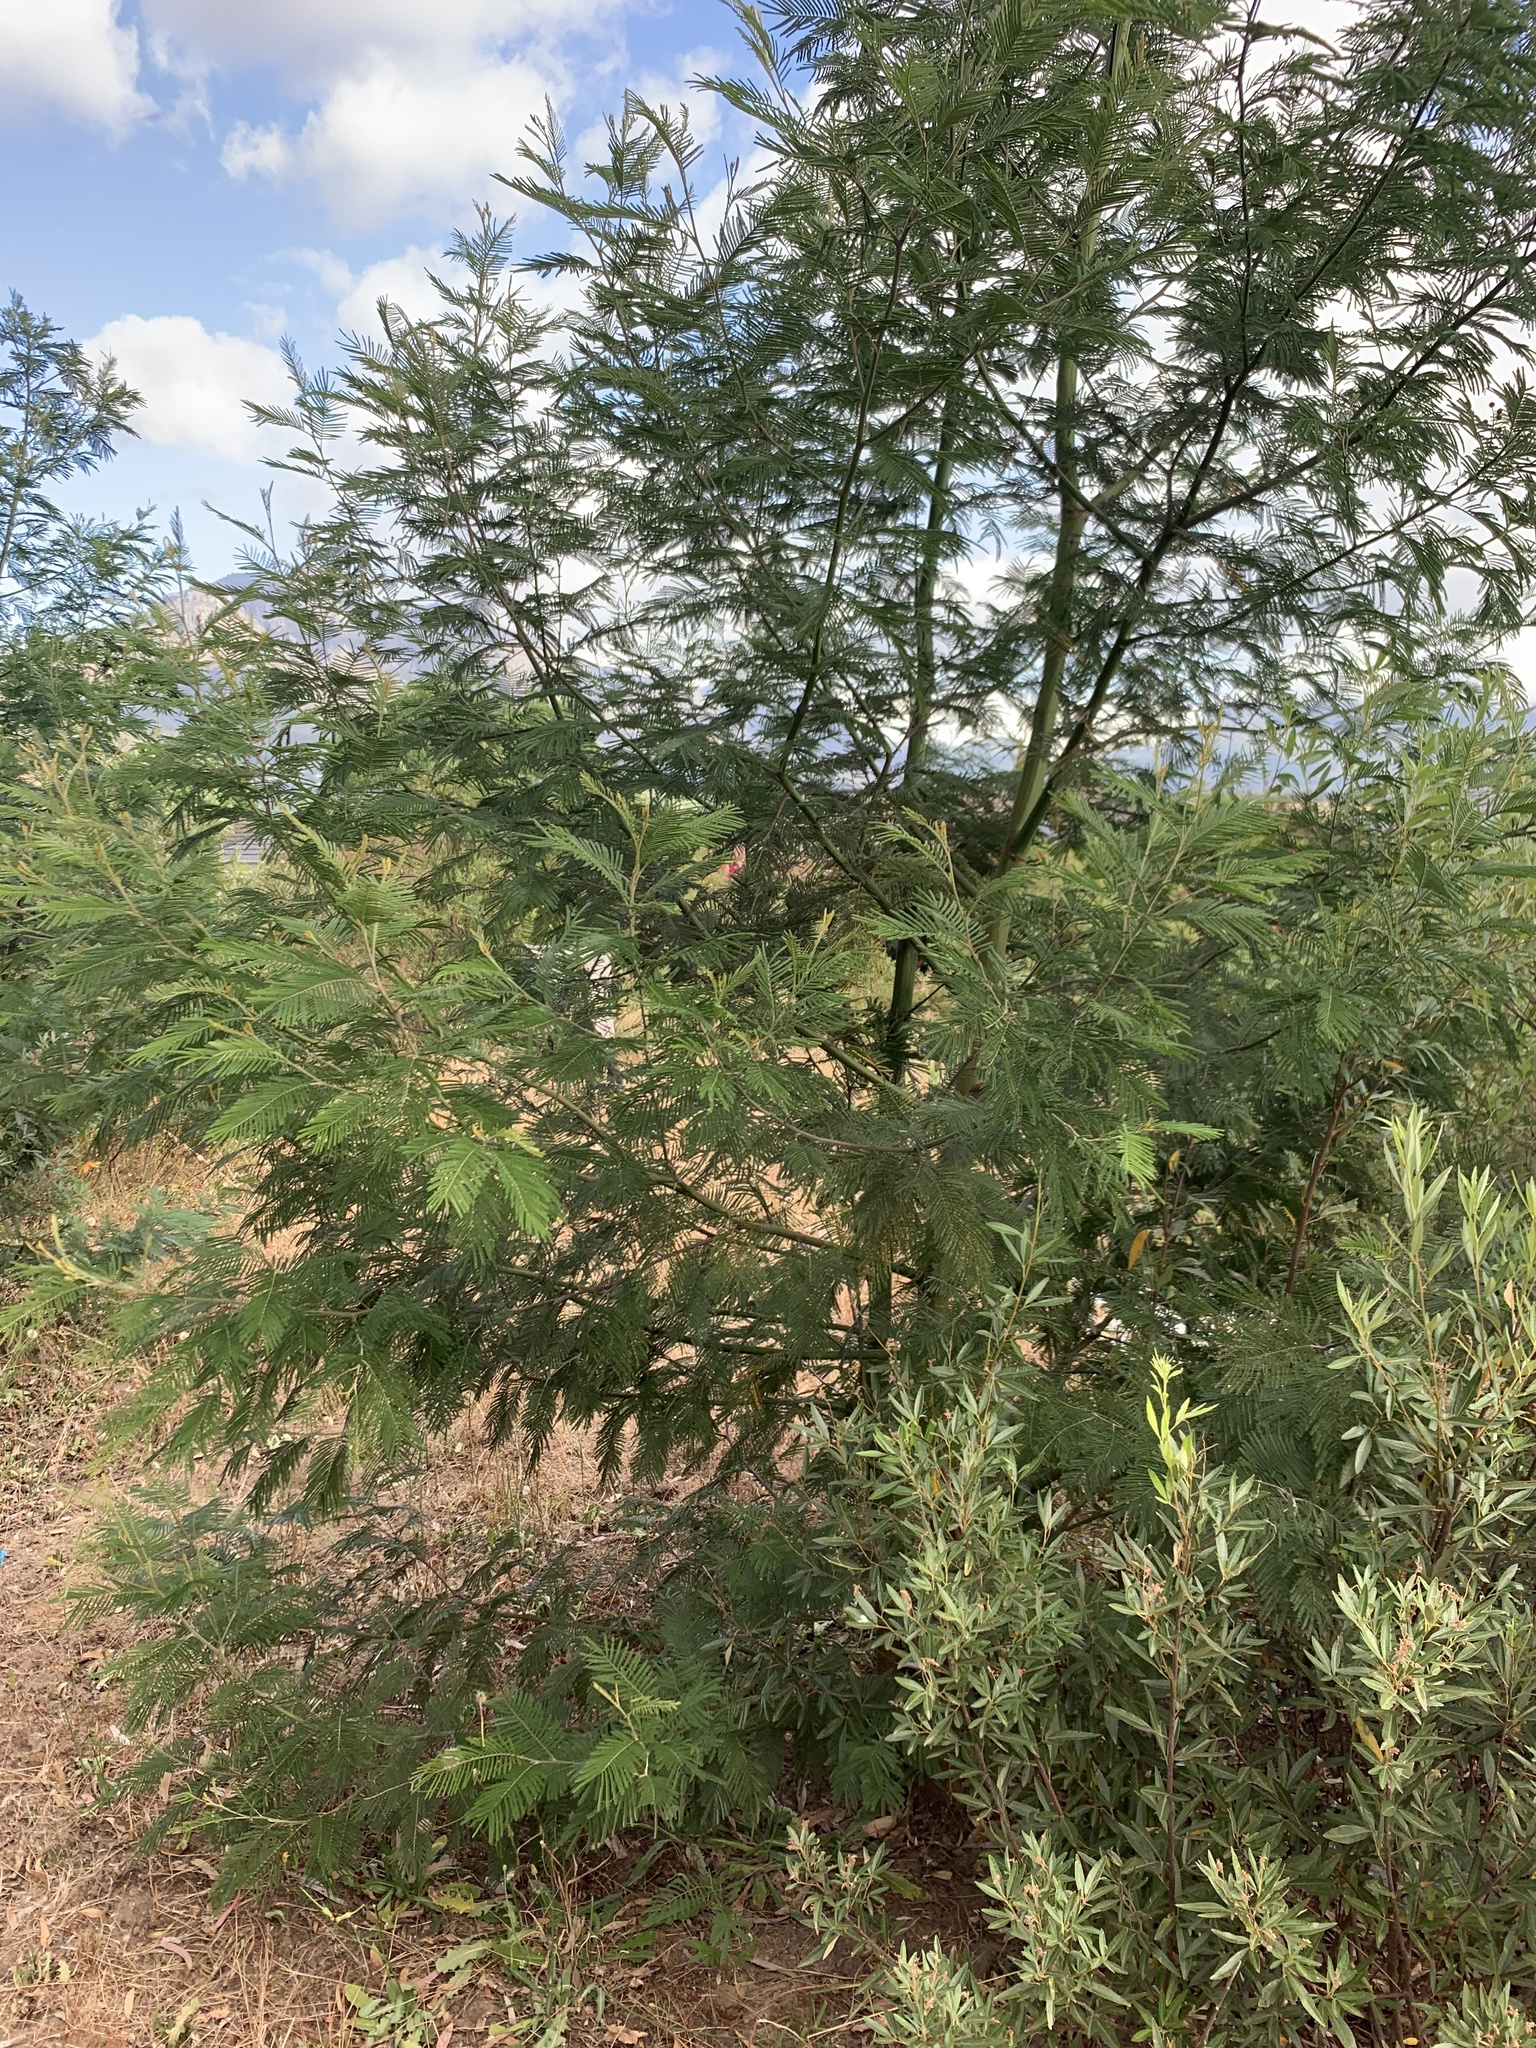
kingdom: Plantae
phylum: Tracheophyta
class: Magnoliopsida
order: Fabales
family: Fabaceae
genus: Acacia
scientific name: Acacia mearnsii
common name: Black wattle
